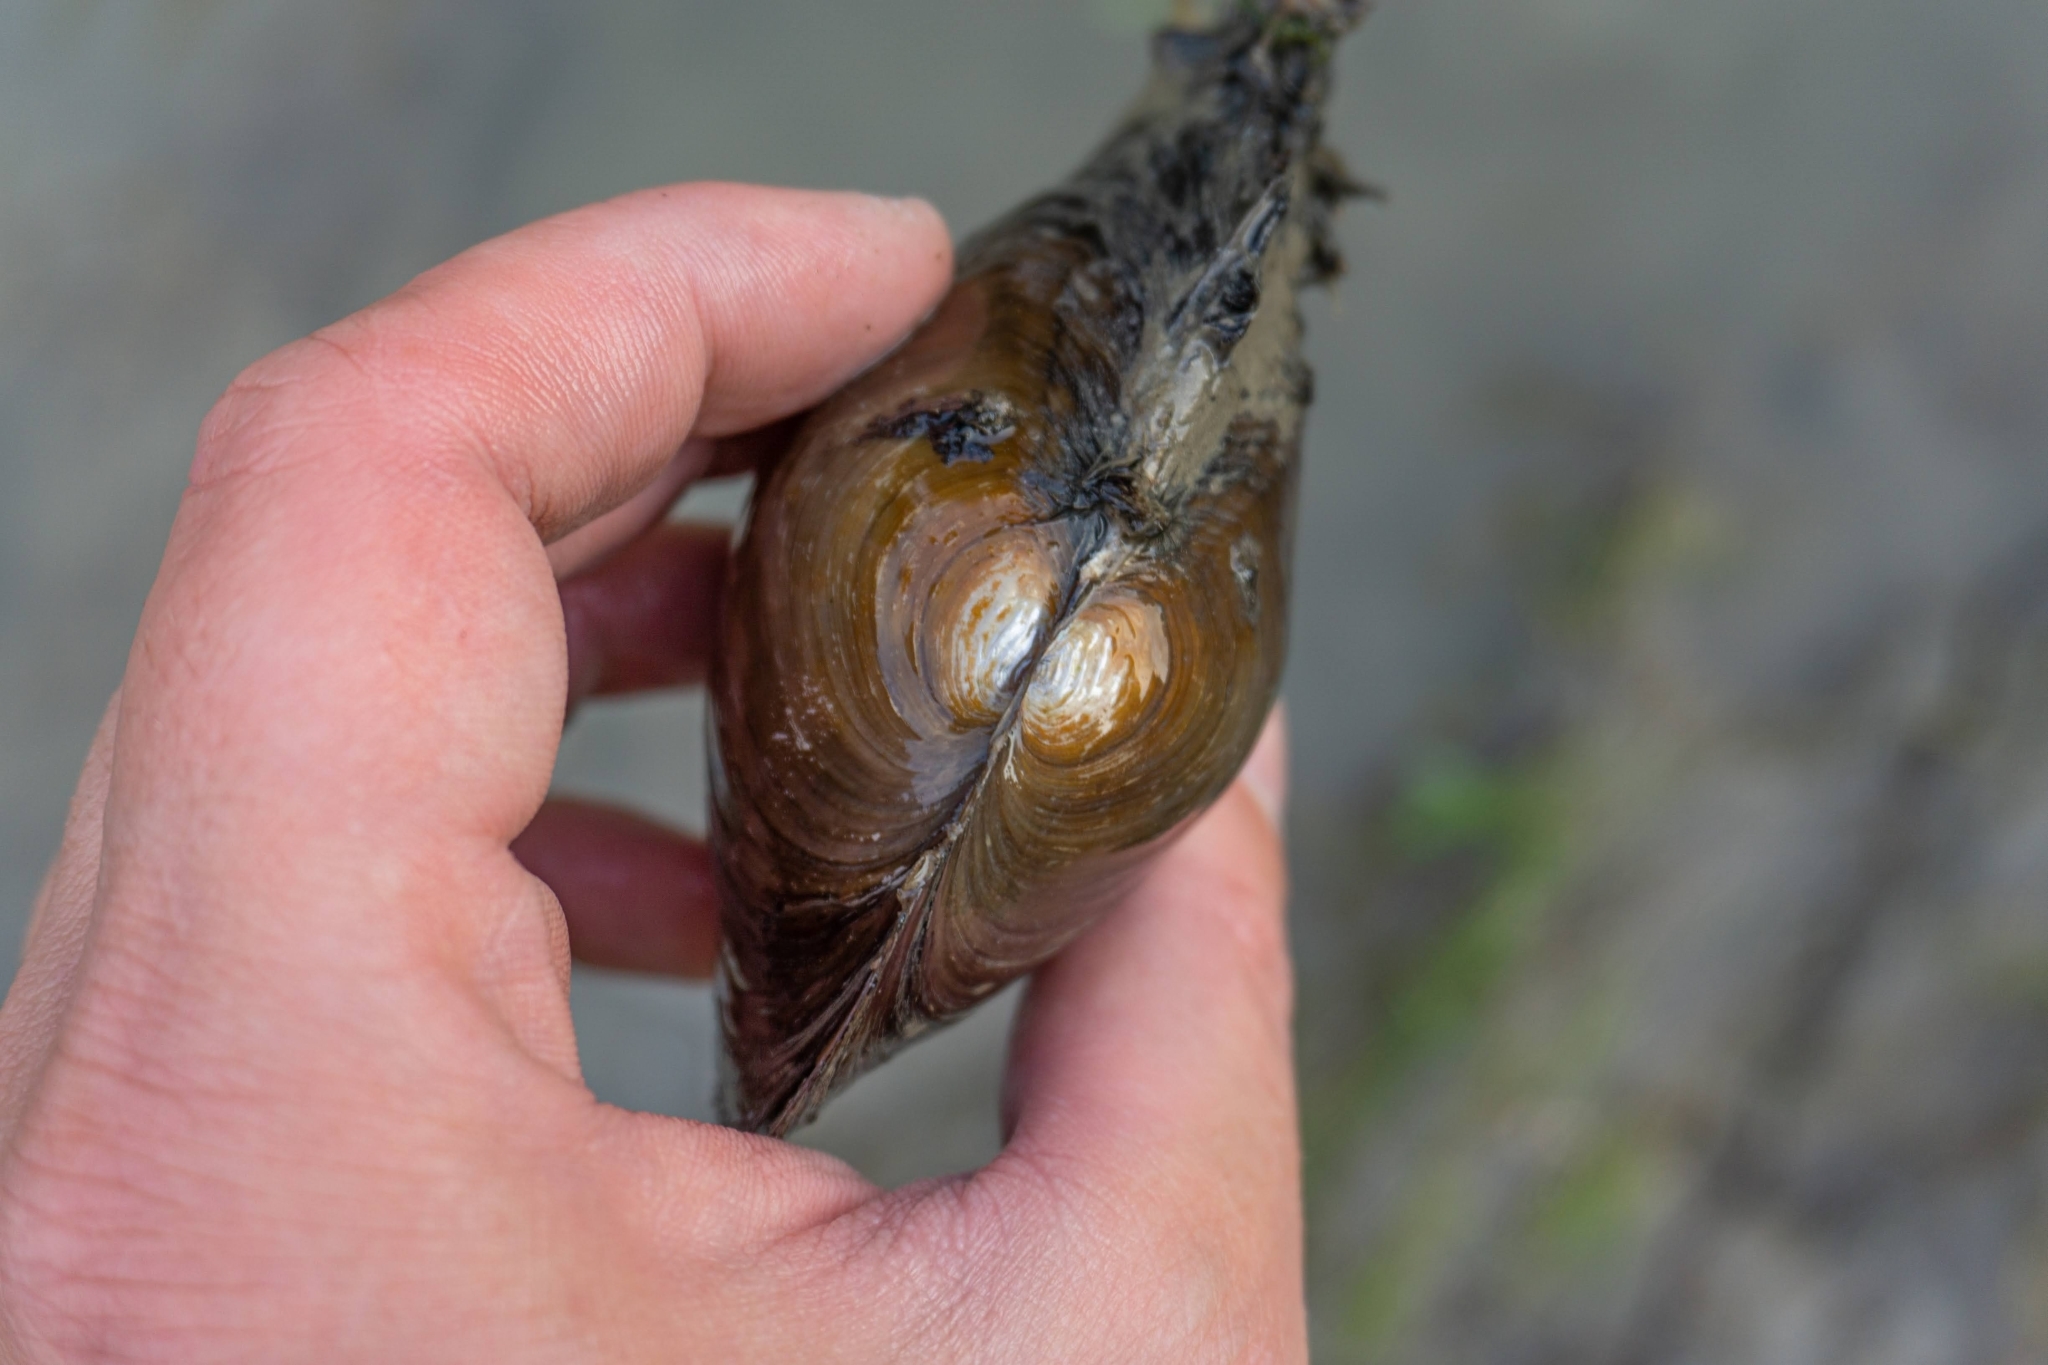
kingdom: Animalia
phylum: Mollusca
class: Bivalvia
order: Unionida
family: Unionidae
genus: Sinanodonta
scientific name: Sinanodonta woodiana
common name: Chinese pond mussel
